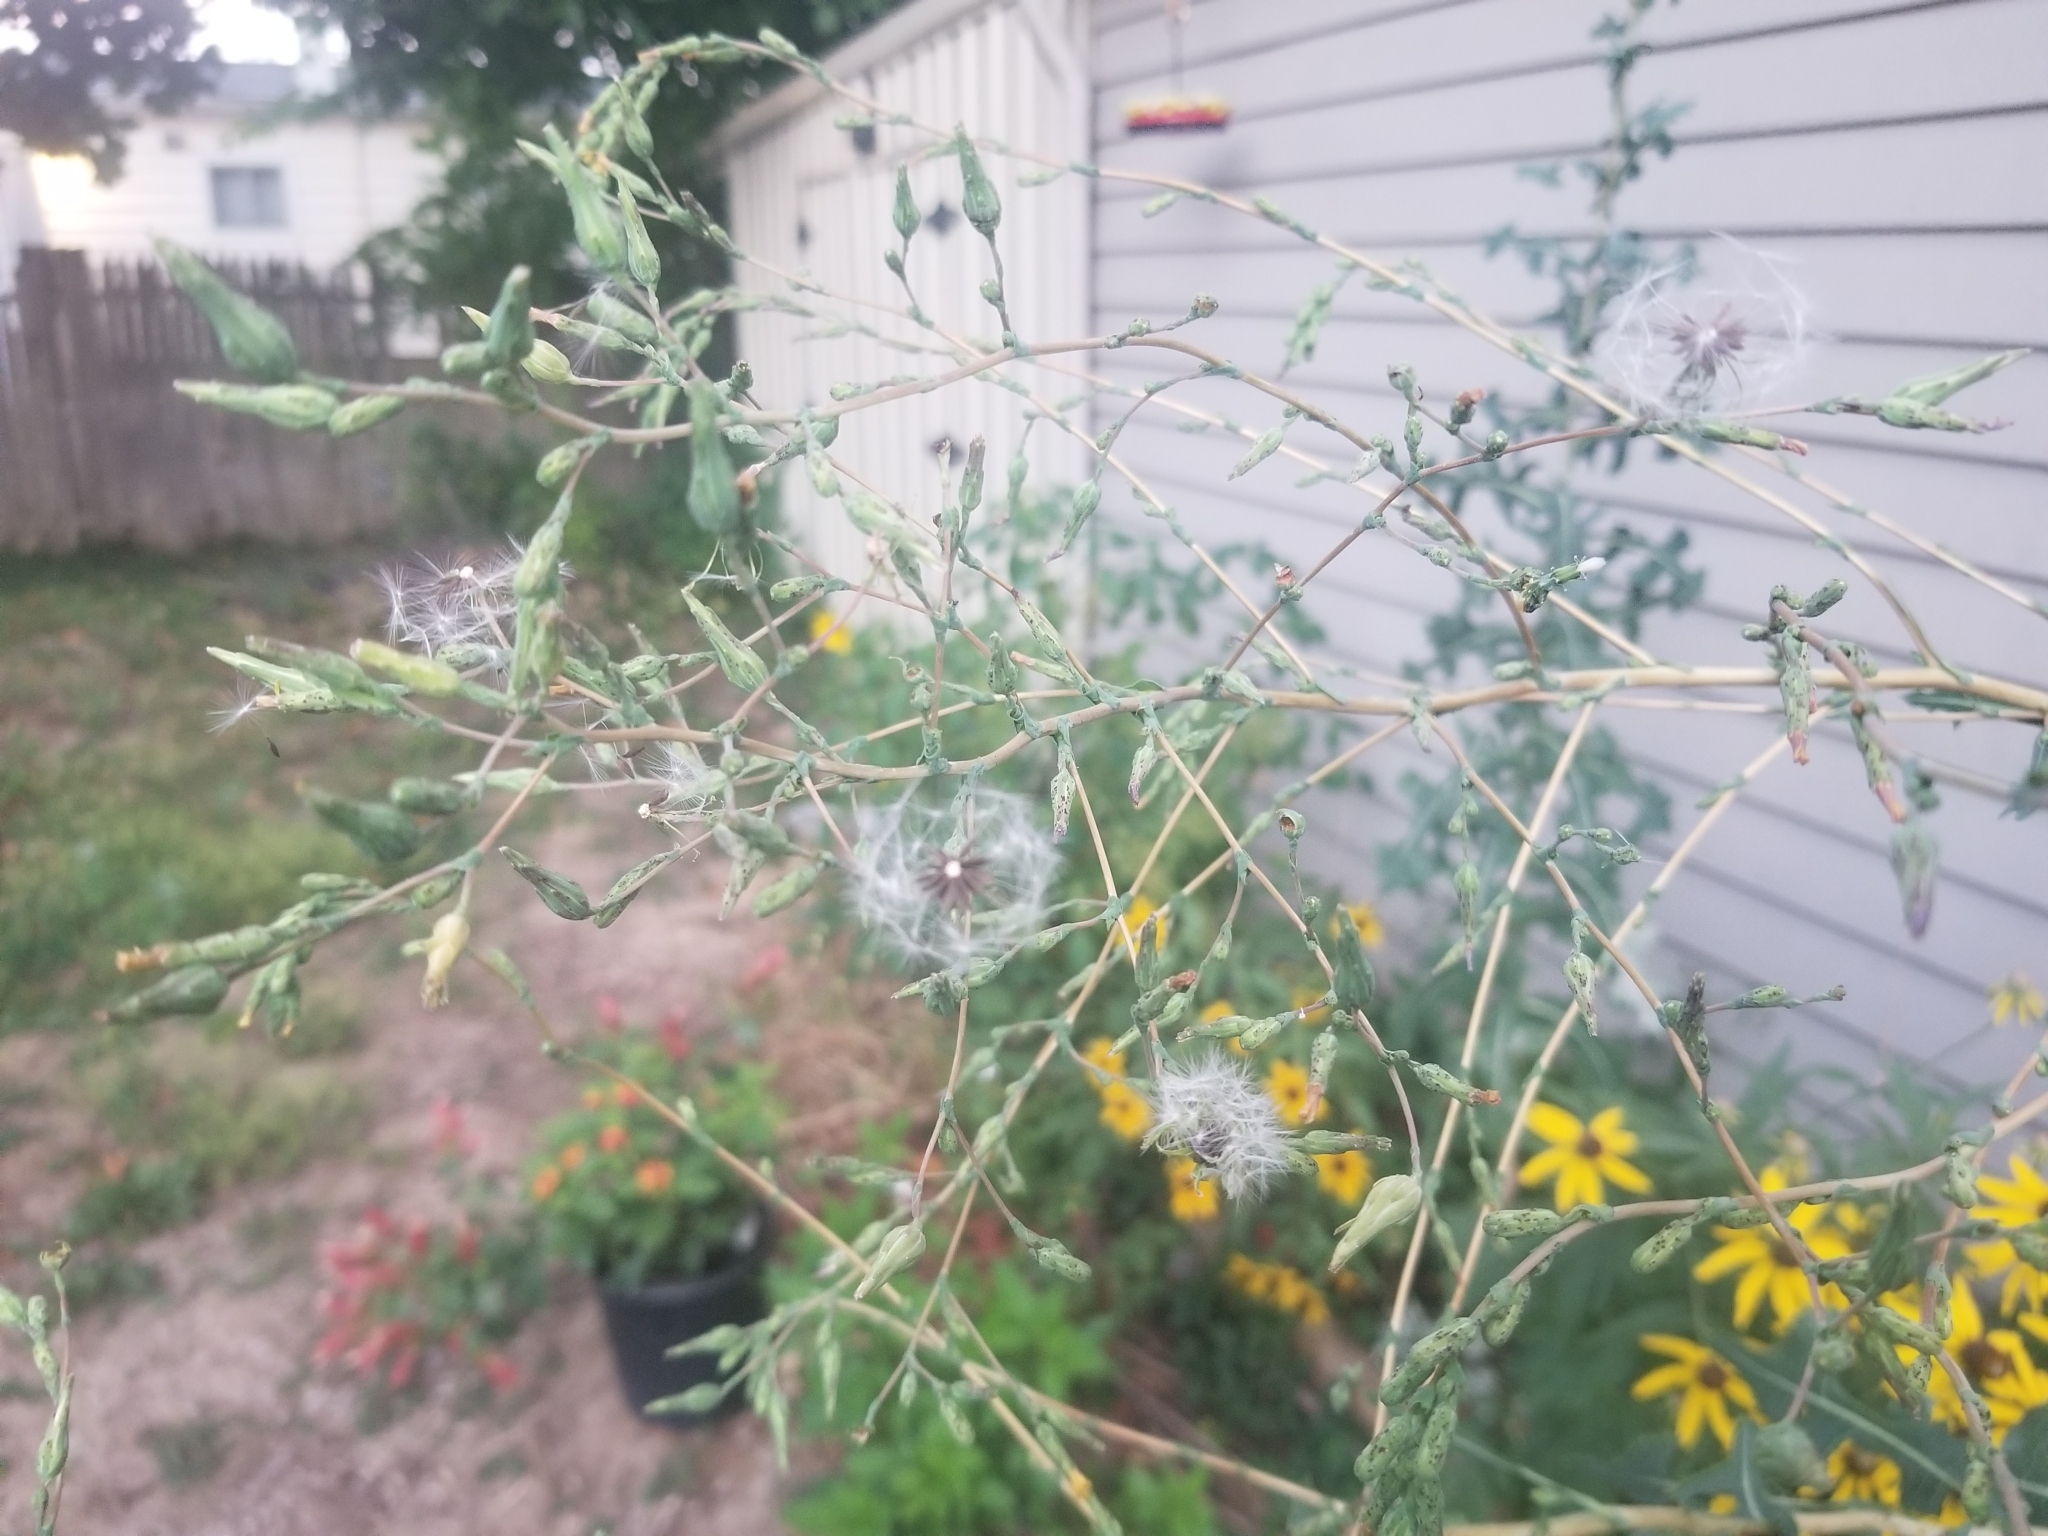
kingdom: Plantae
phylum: Tracheophyta
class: Magnoliopsida
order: Asterales
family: Asteraceae
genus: Lactuca
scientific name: Lactuca serriola
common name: Prickly lettuce
